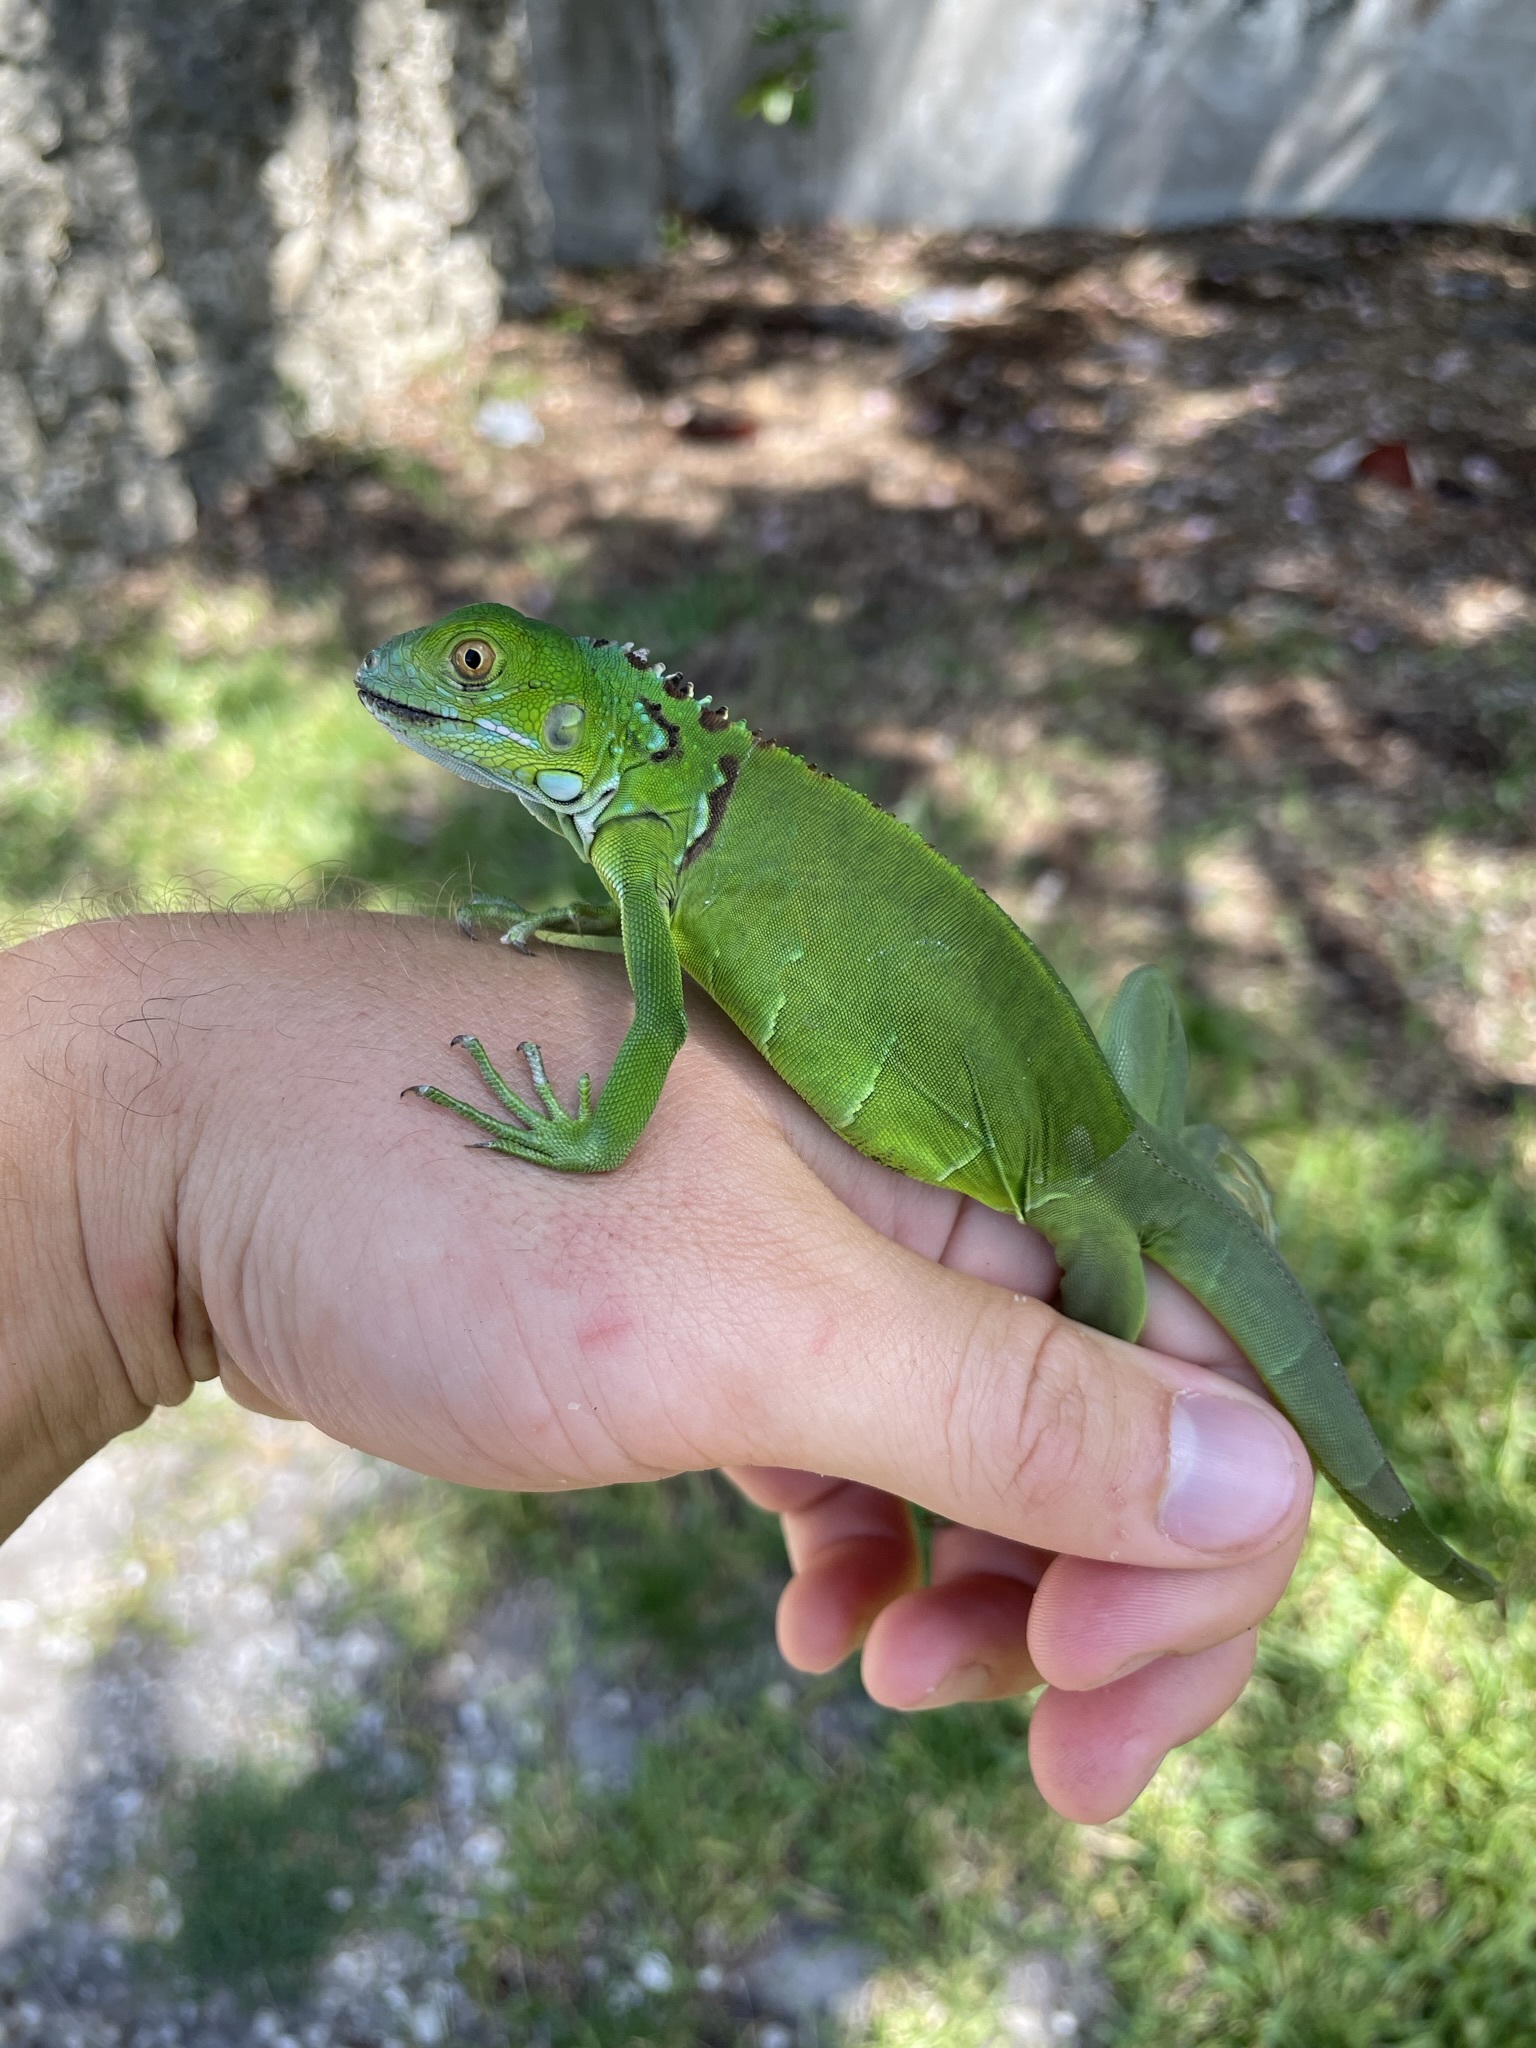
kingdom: Animalia
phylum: Chordata
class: Squamata
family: Iguanidae
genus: Iguana
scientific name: Iguana iguana
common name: Green iguana
